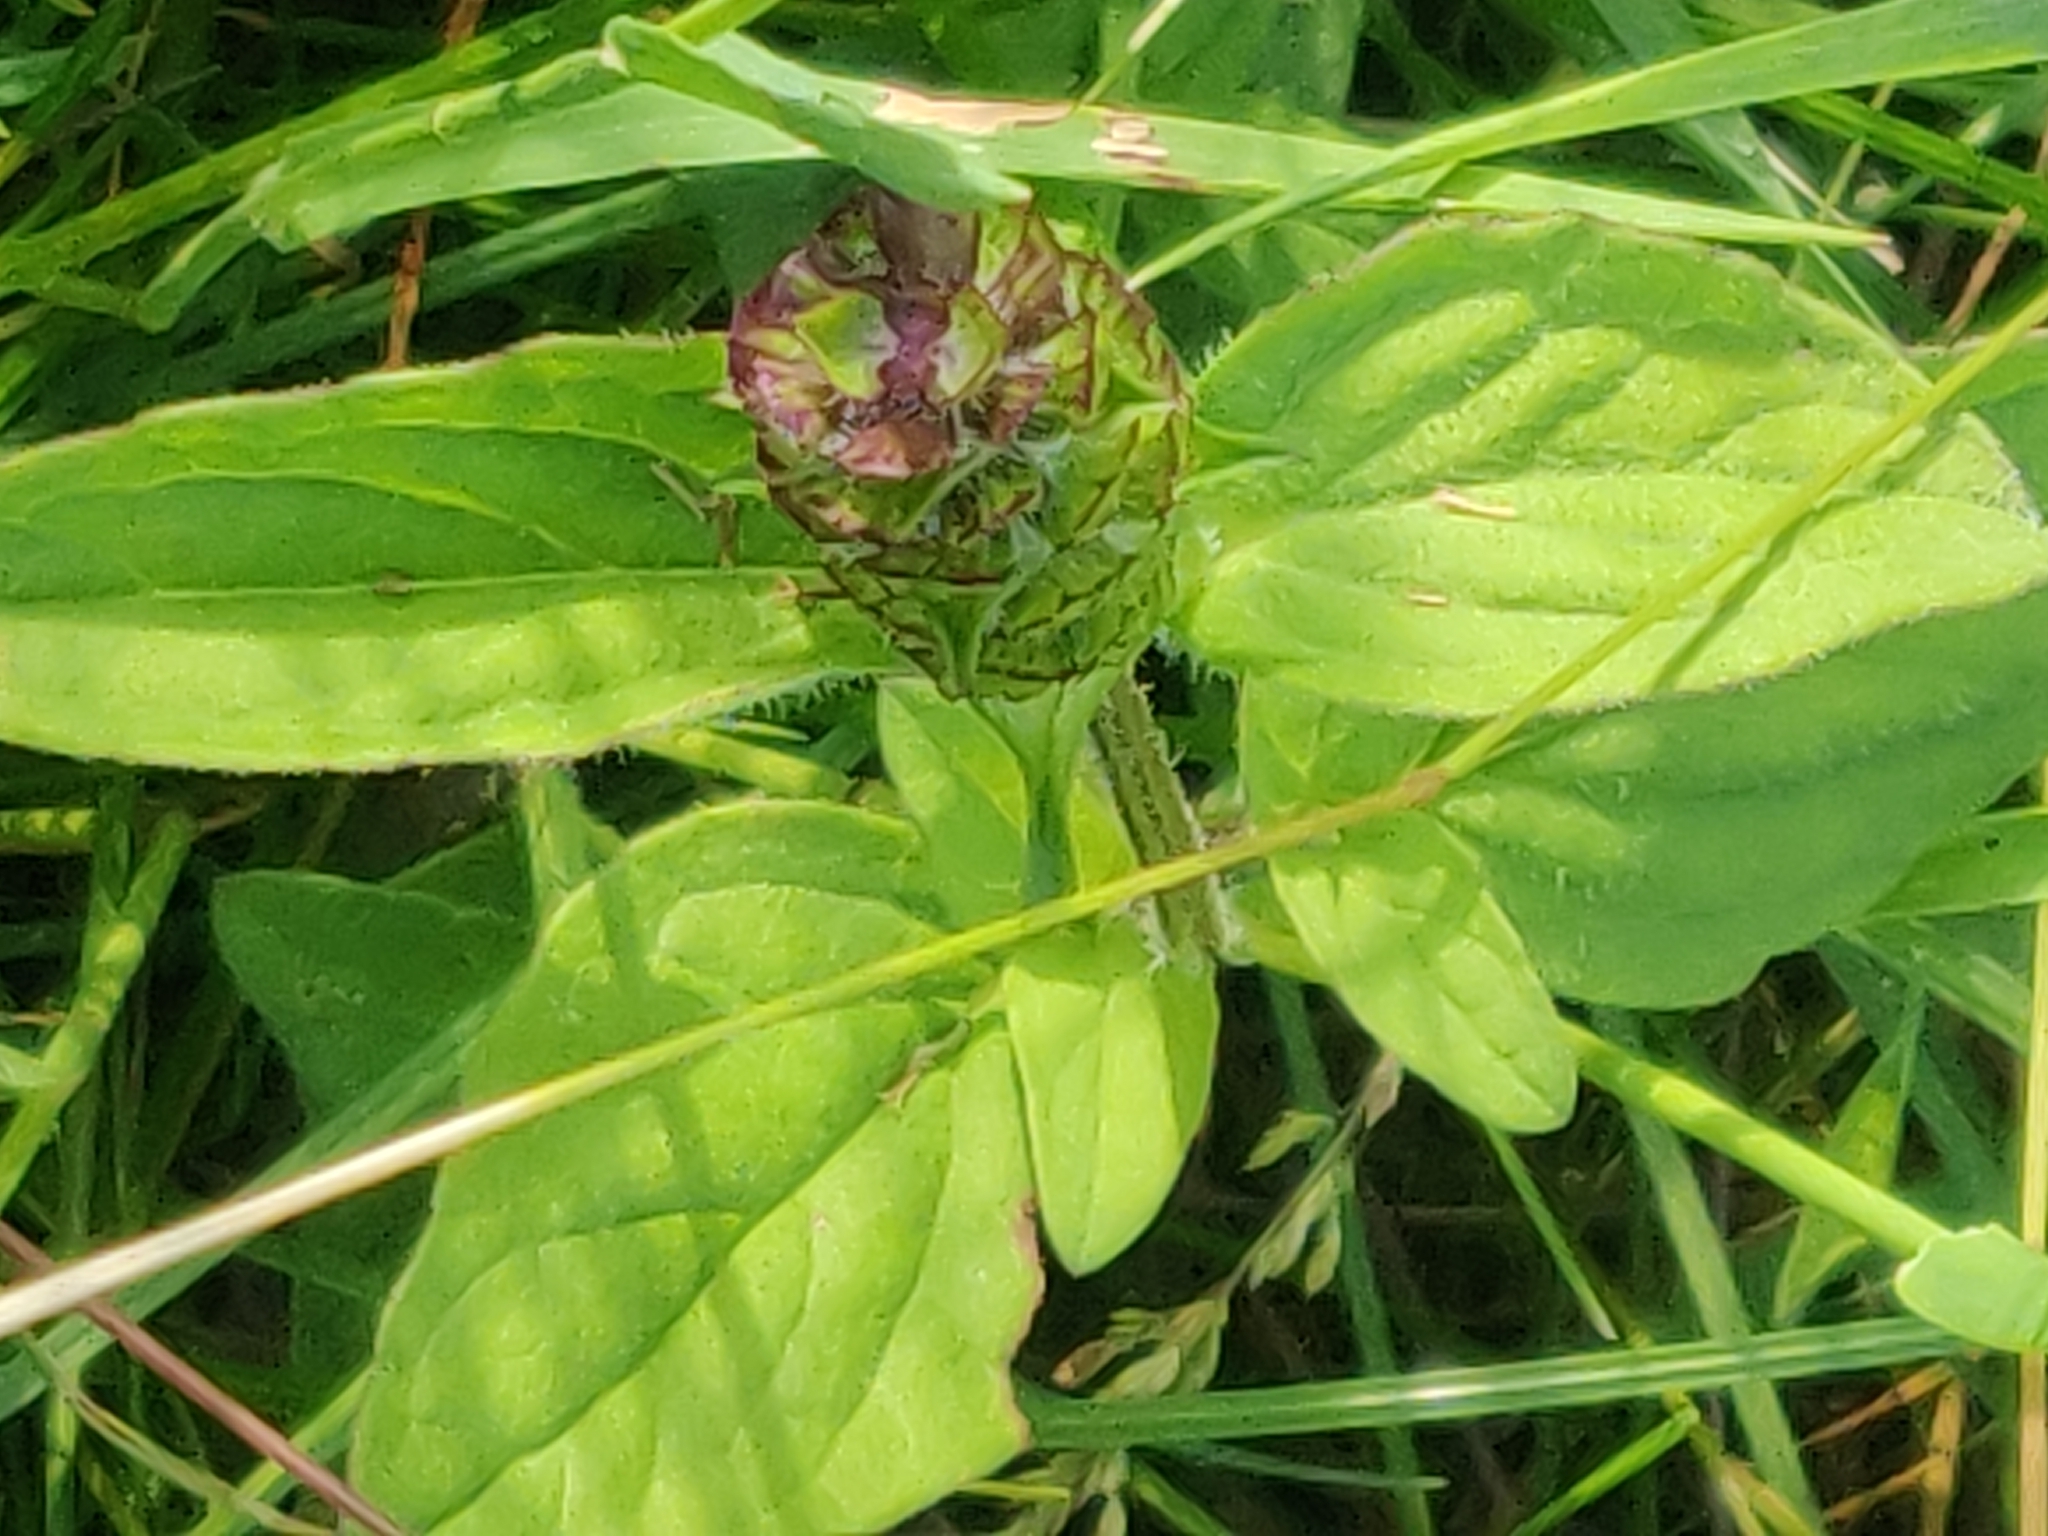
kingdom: Plantae
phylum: Tracheophyta
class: Magnoliopsida
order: Lamiales
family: Lamiaceae
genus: Prunella
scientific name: Prunella vulgaris
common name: Heal-all
